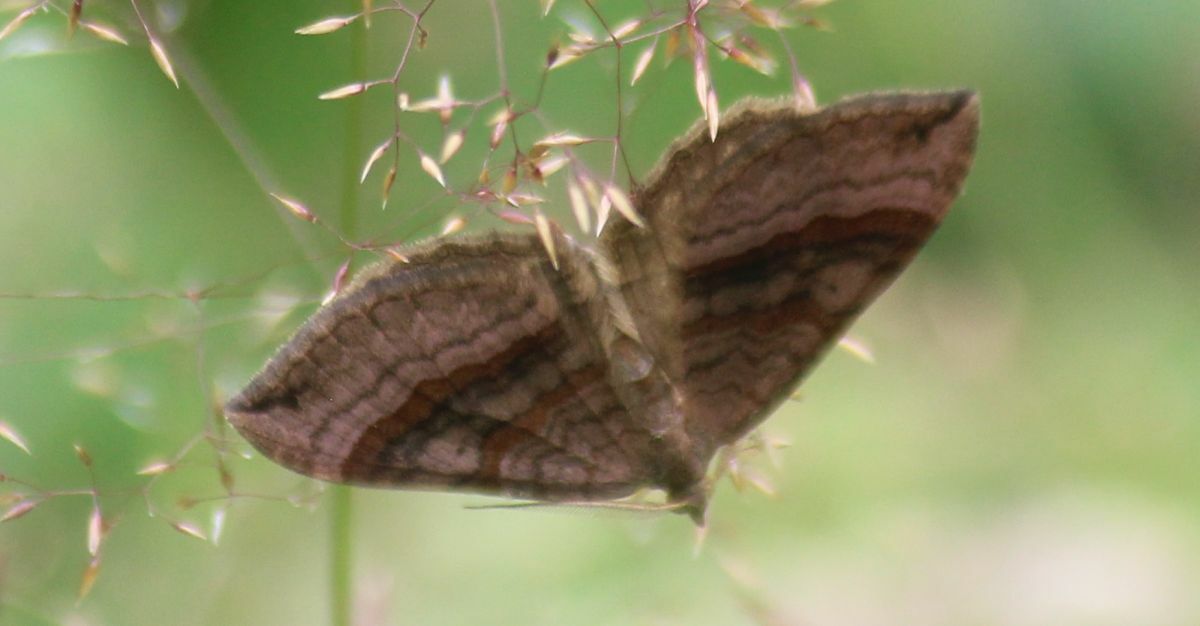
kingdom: Animalia
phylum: Arthropoda
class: Insecta
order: Lepidoptera
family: Geometridae
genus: Scotopteryx
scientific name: Scotopteryx chenopodiata
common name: Shaded broad-bar
